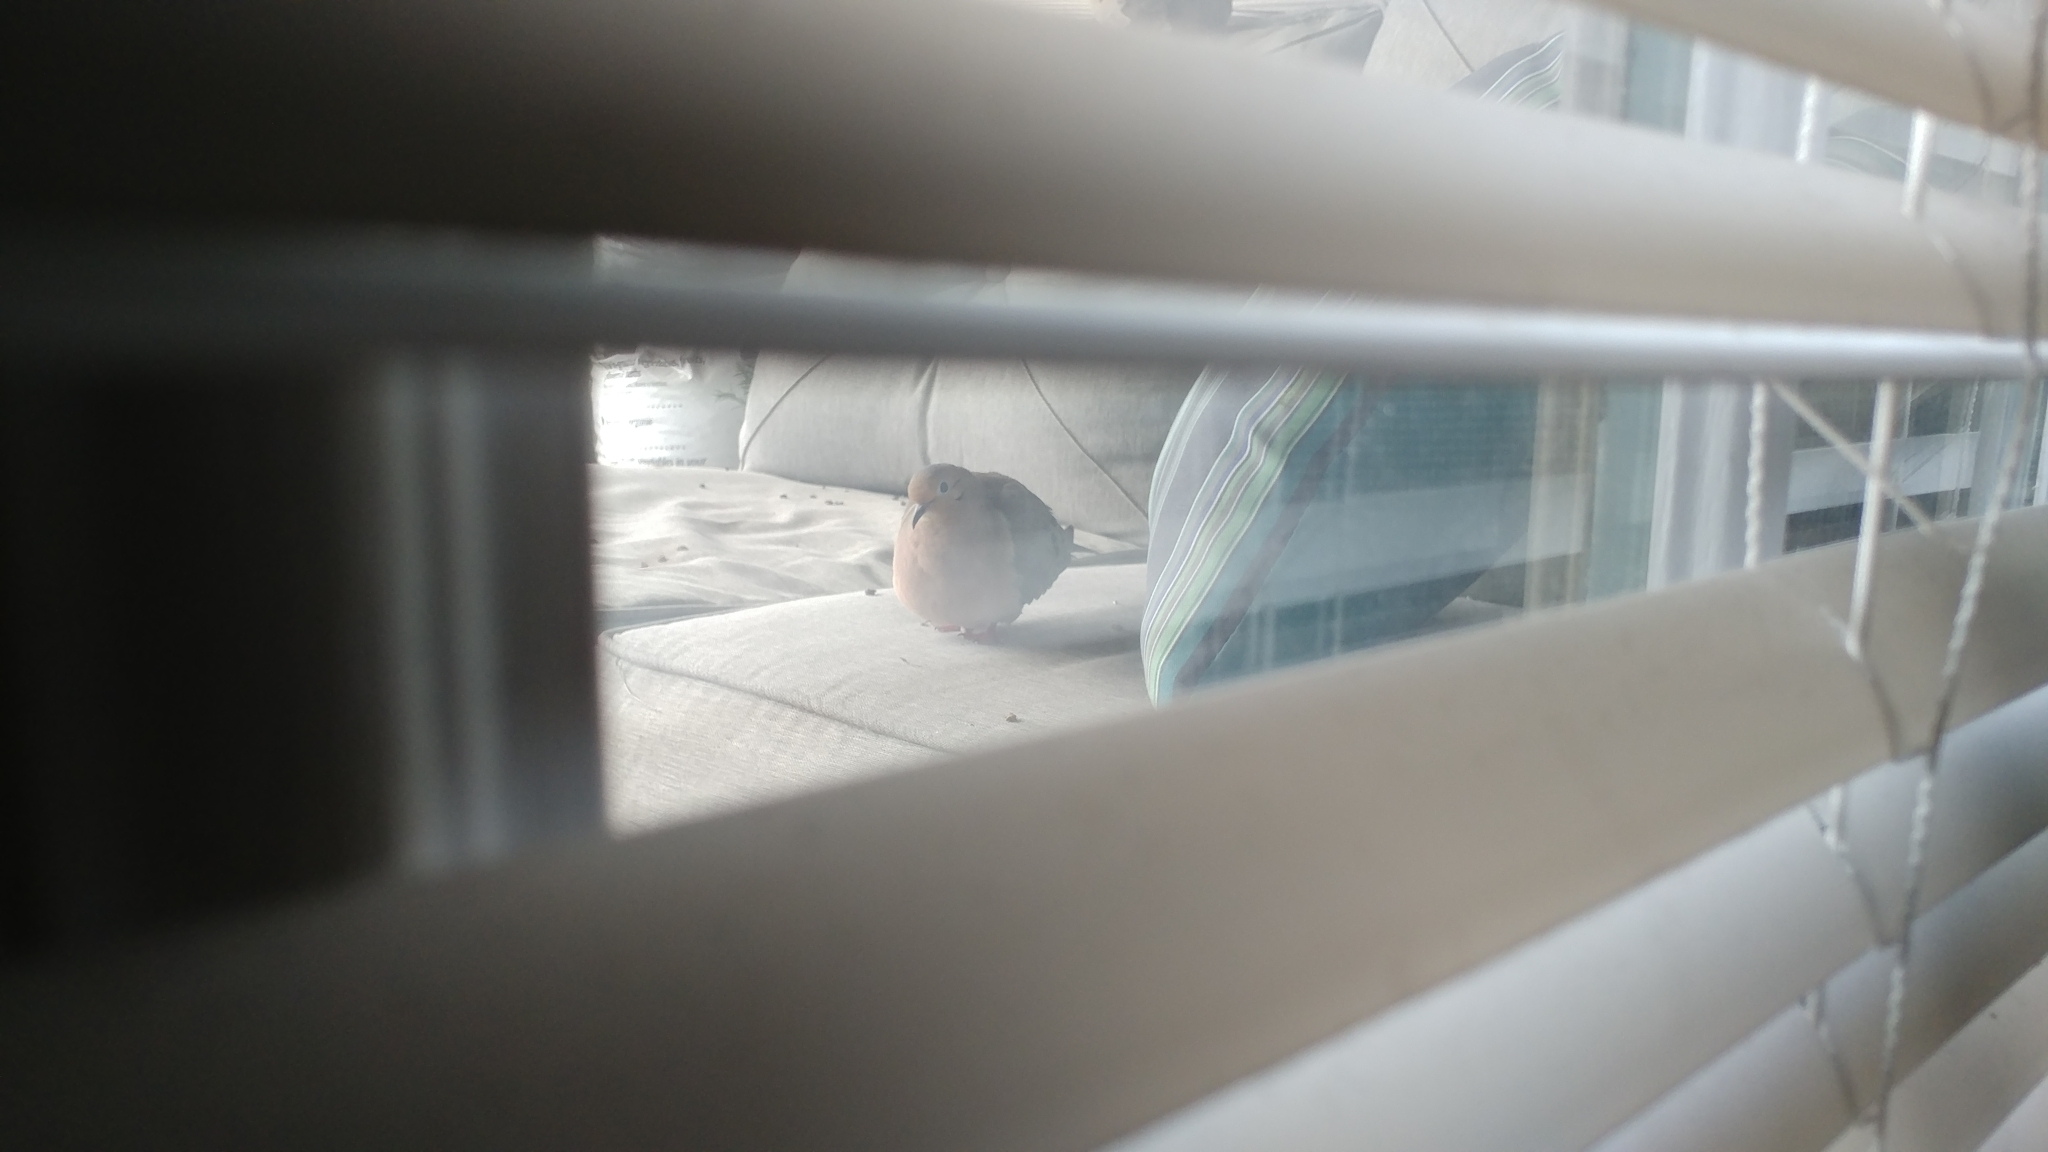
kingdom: Animalia
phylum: Chordata
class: Aves
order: Columbiformes
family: Columbidae
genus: Zenaida
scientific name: Zenaida macroura
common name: Mourning dove
